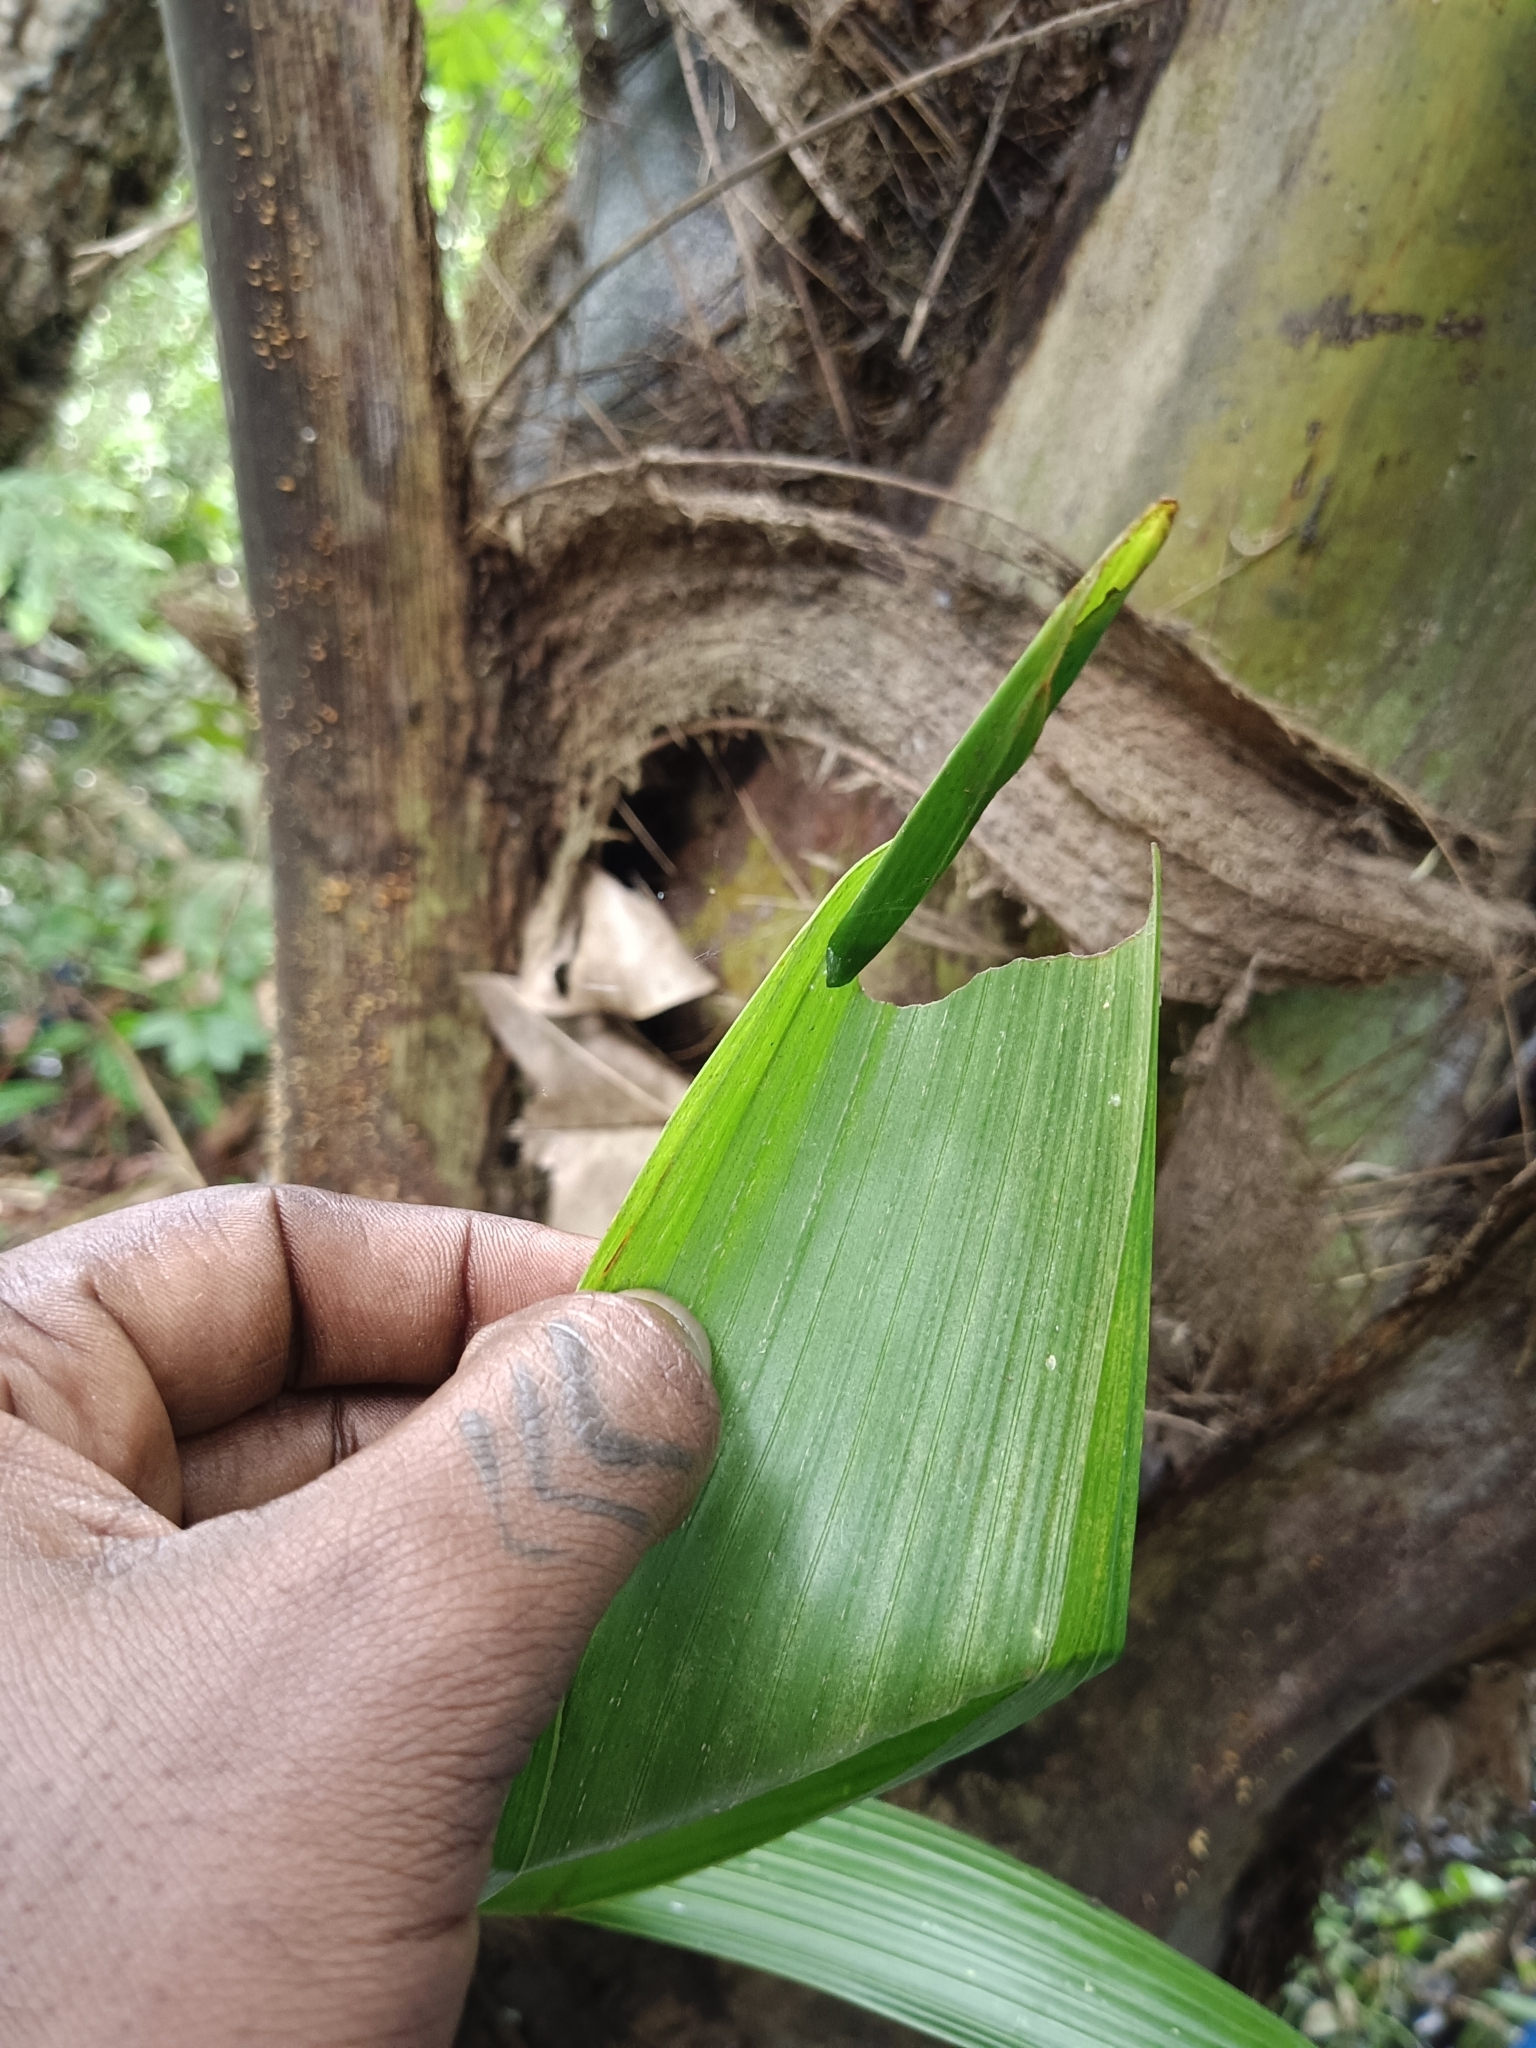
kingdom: Animalia
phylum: Arthropoda
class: Insecta
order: Lepidoptera
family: Hesperiidae
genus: Gangara
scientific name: Gangara thyrsis
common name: Giant redeye
